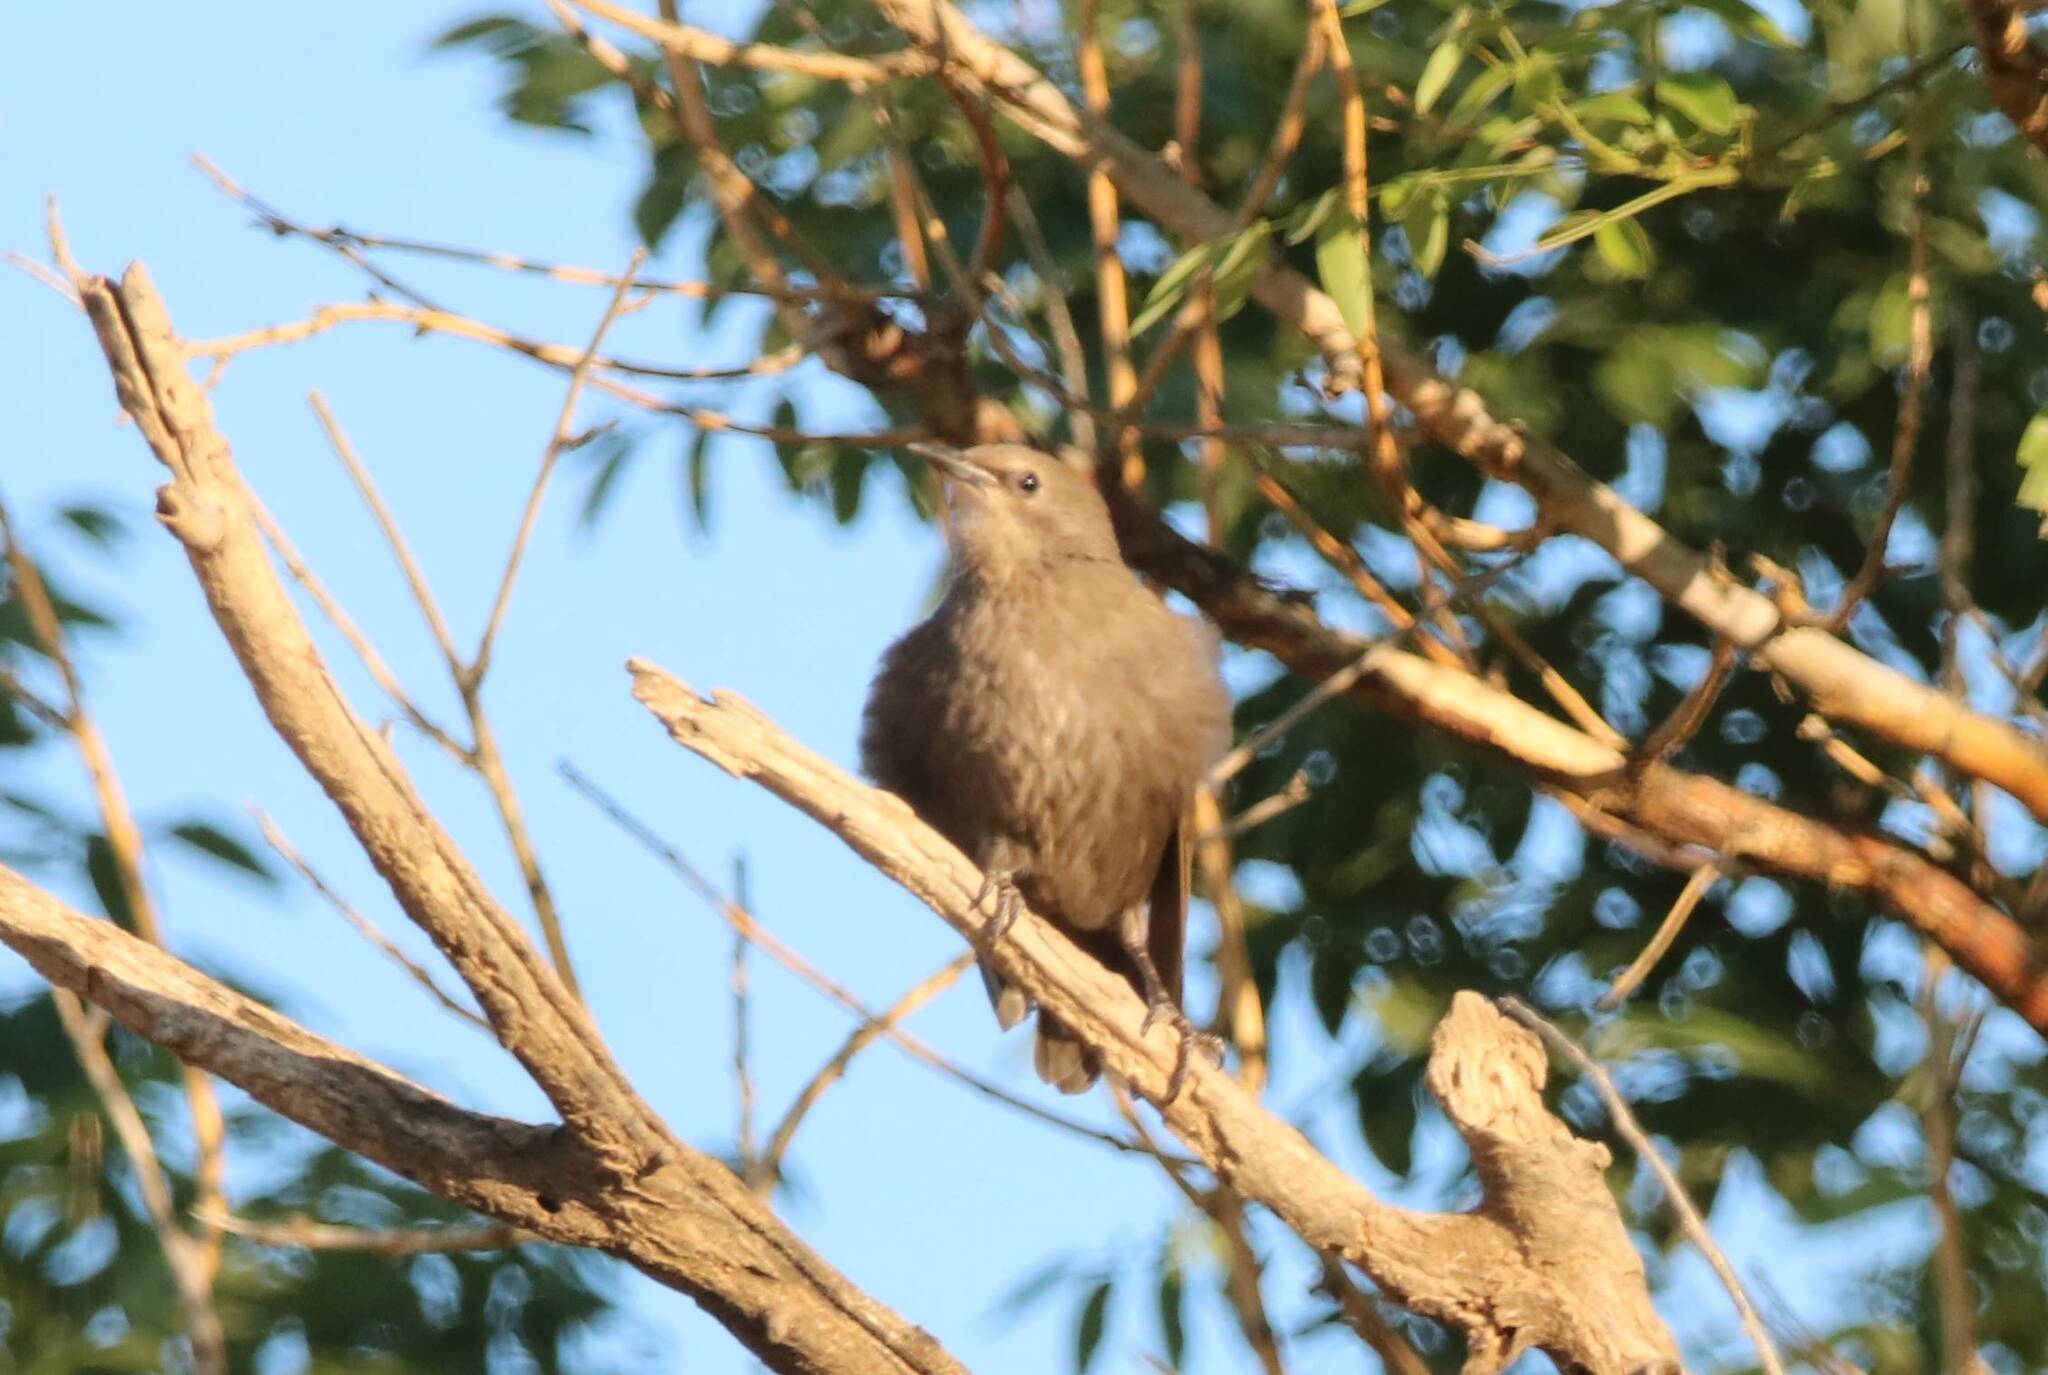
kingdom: Animalia
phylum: Chordata
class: Aves
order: Passeriformes
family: Sturnidae
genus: Sturnus
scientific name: Sturnus unicolor
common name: Spotless starling
